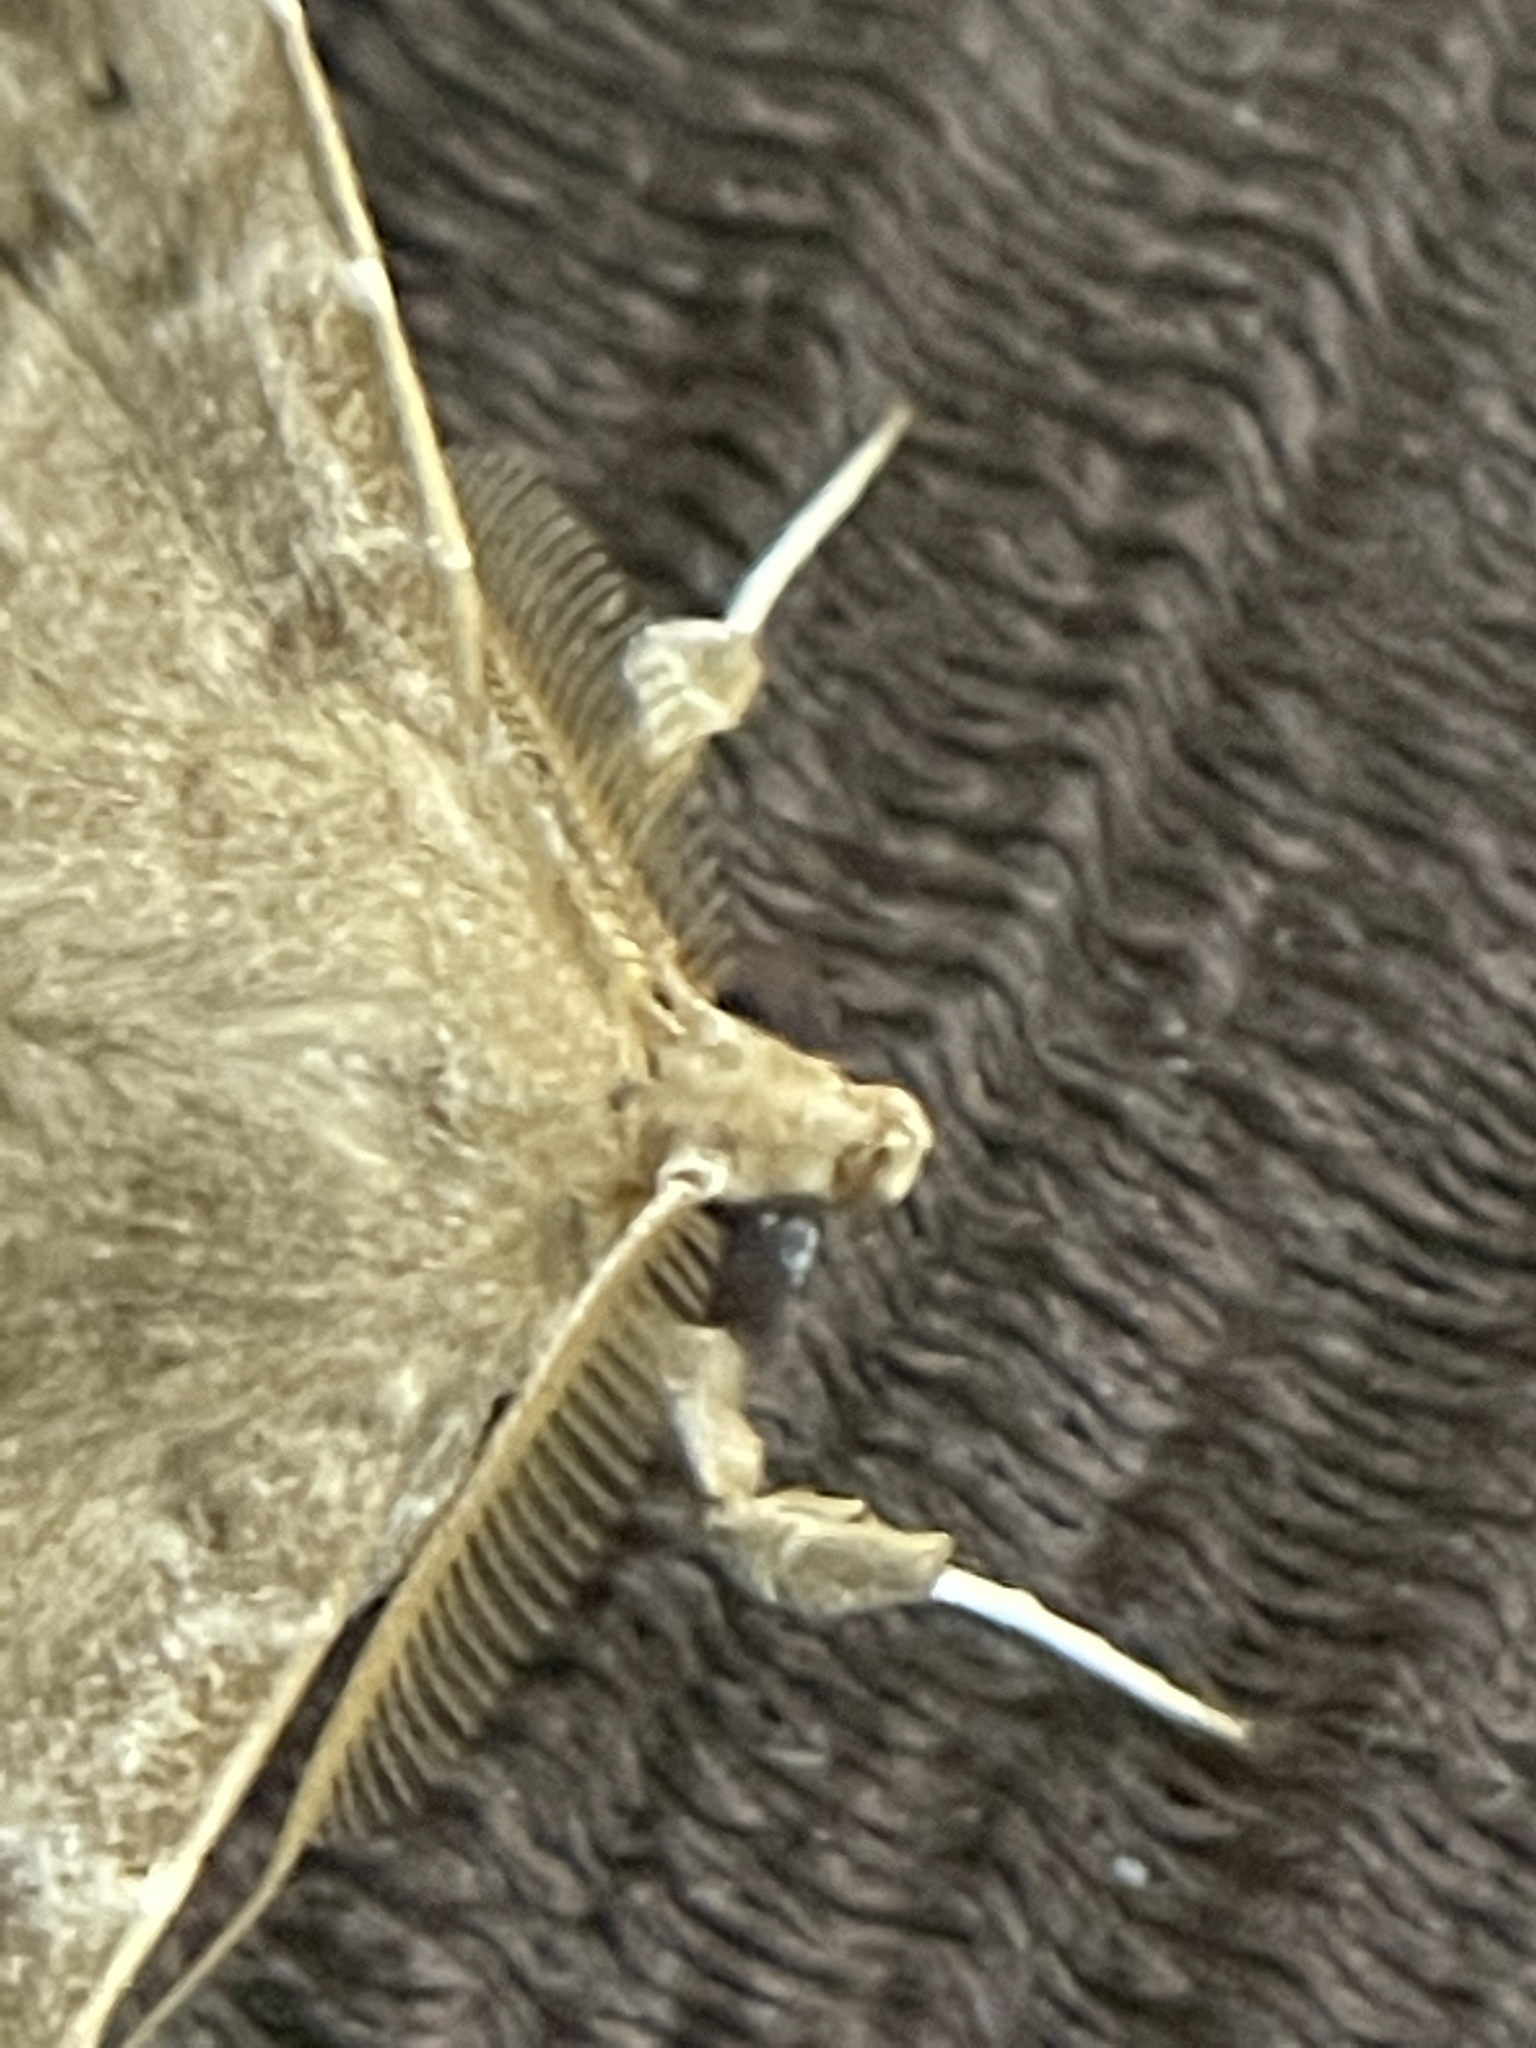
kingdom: Animalia
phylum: Arthropoda
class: Insecta
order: Lepidoptera
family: Erebidae
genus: Episparis
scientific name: Episparis liturata
